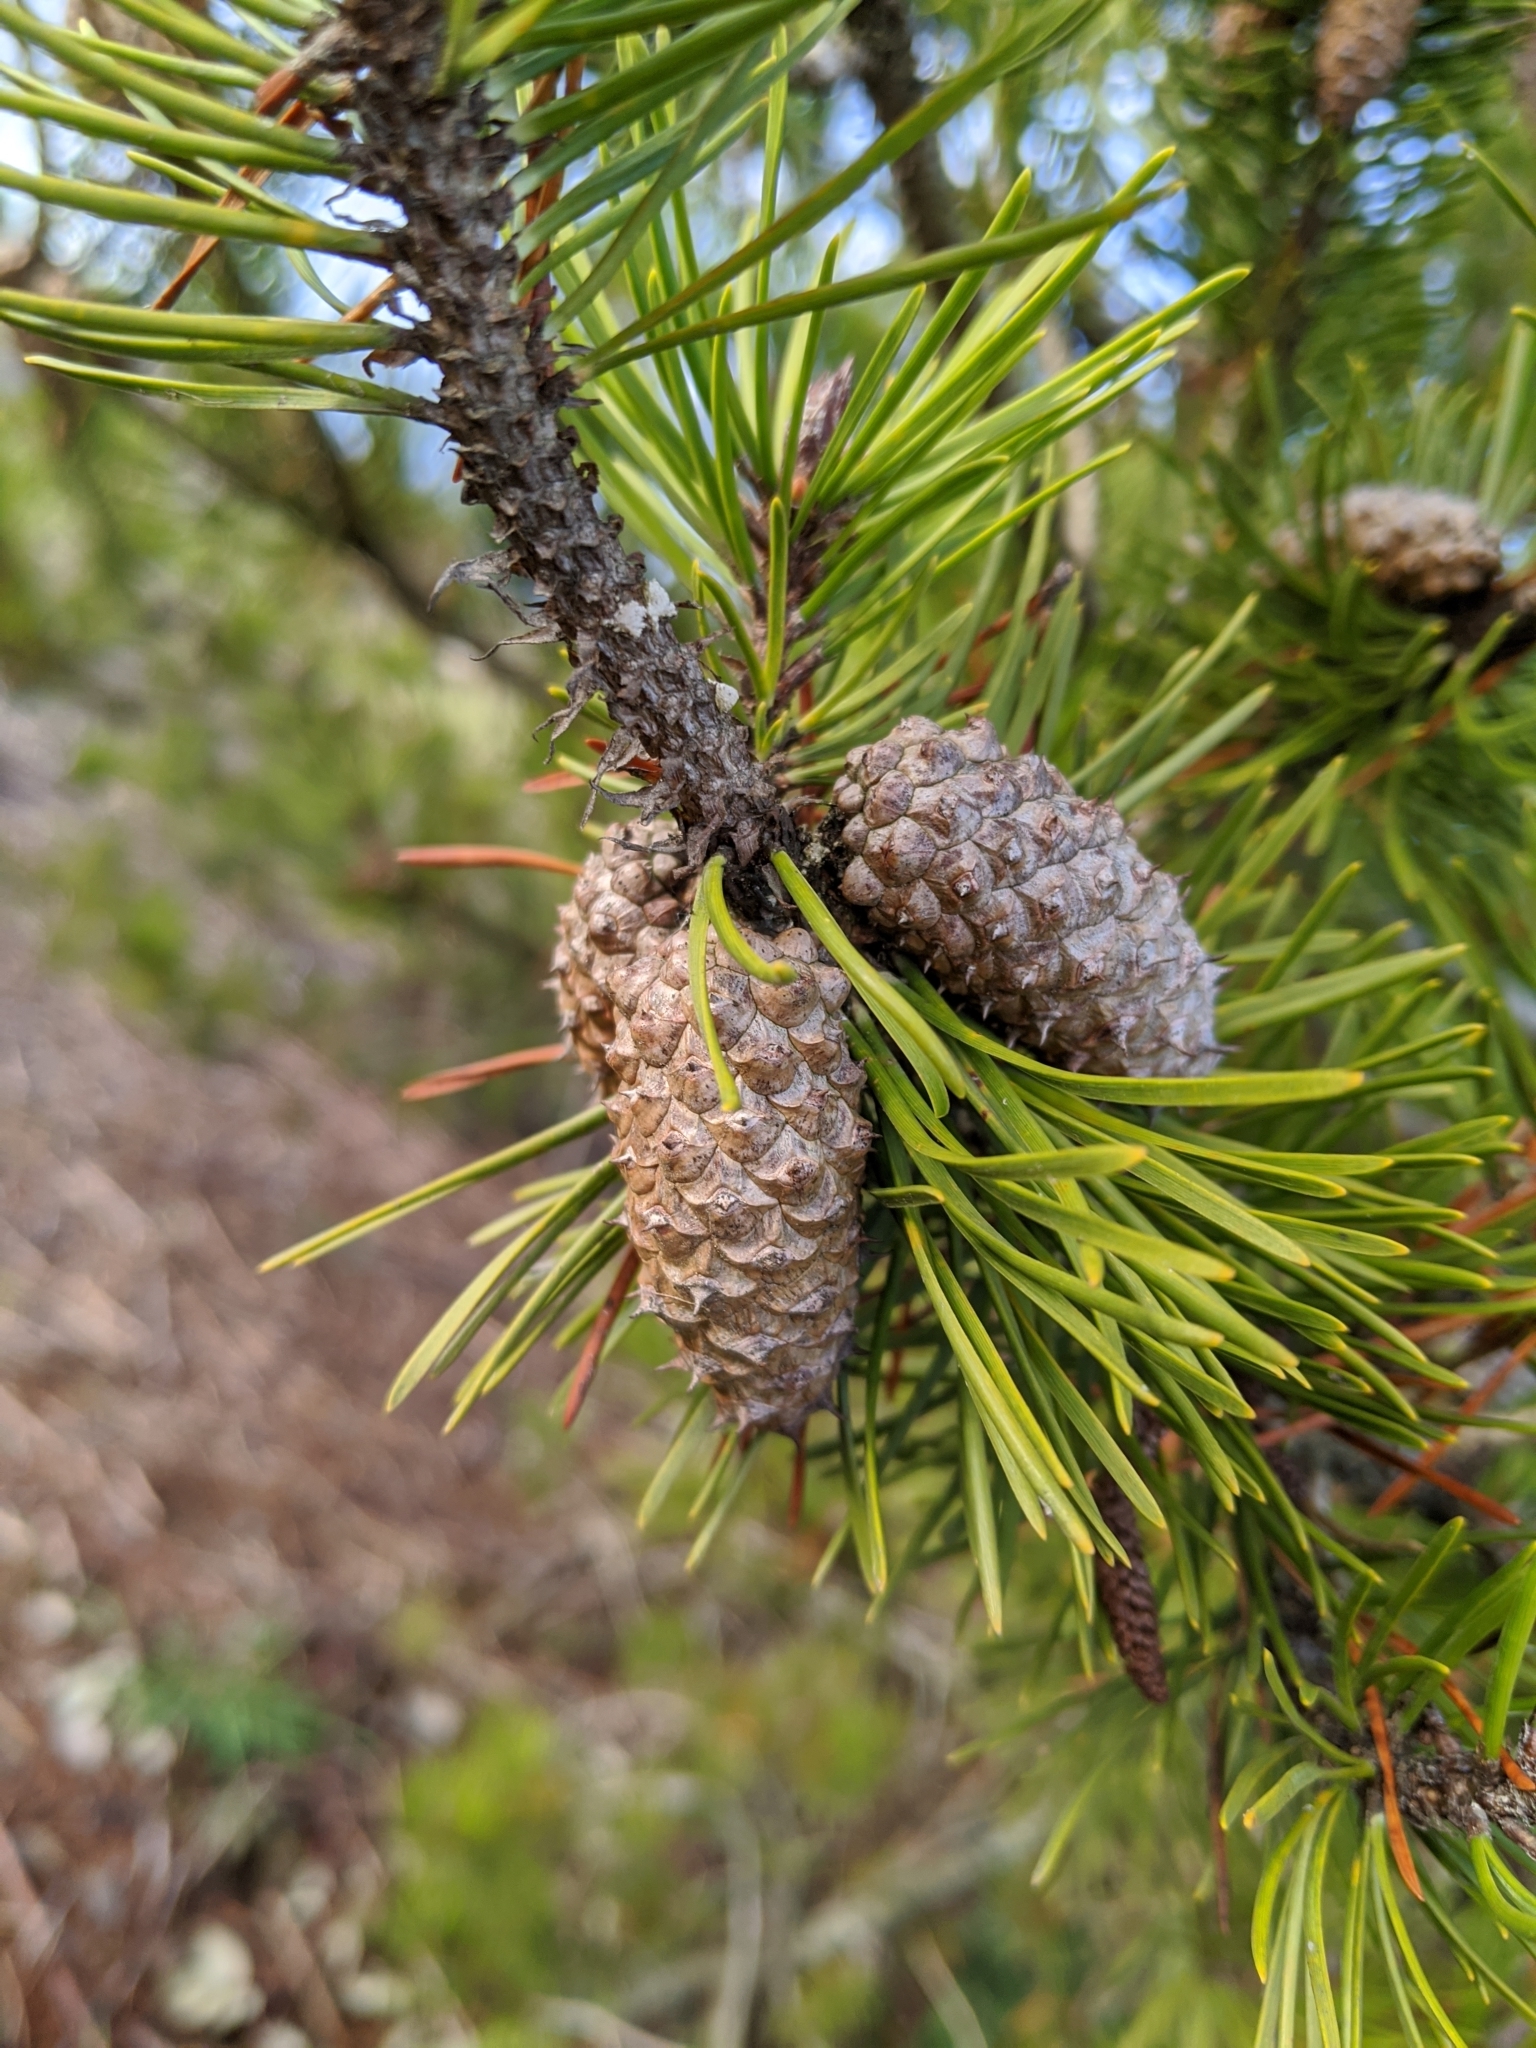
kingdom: Plantae
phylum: Tracheophyta
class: Pinopsida
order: Pinales
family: Pinaceae
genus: Pinus
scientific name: Pinus contorta
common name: Lodgepole pine
